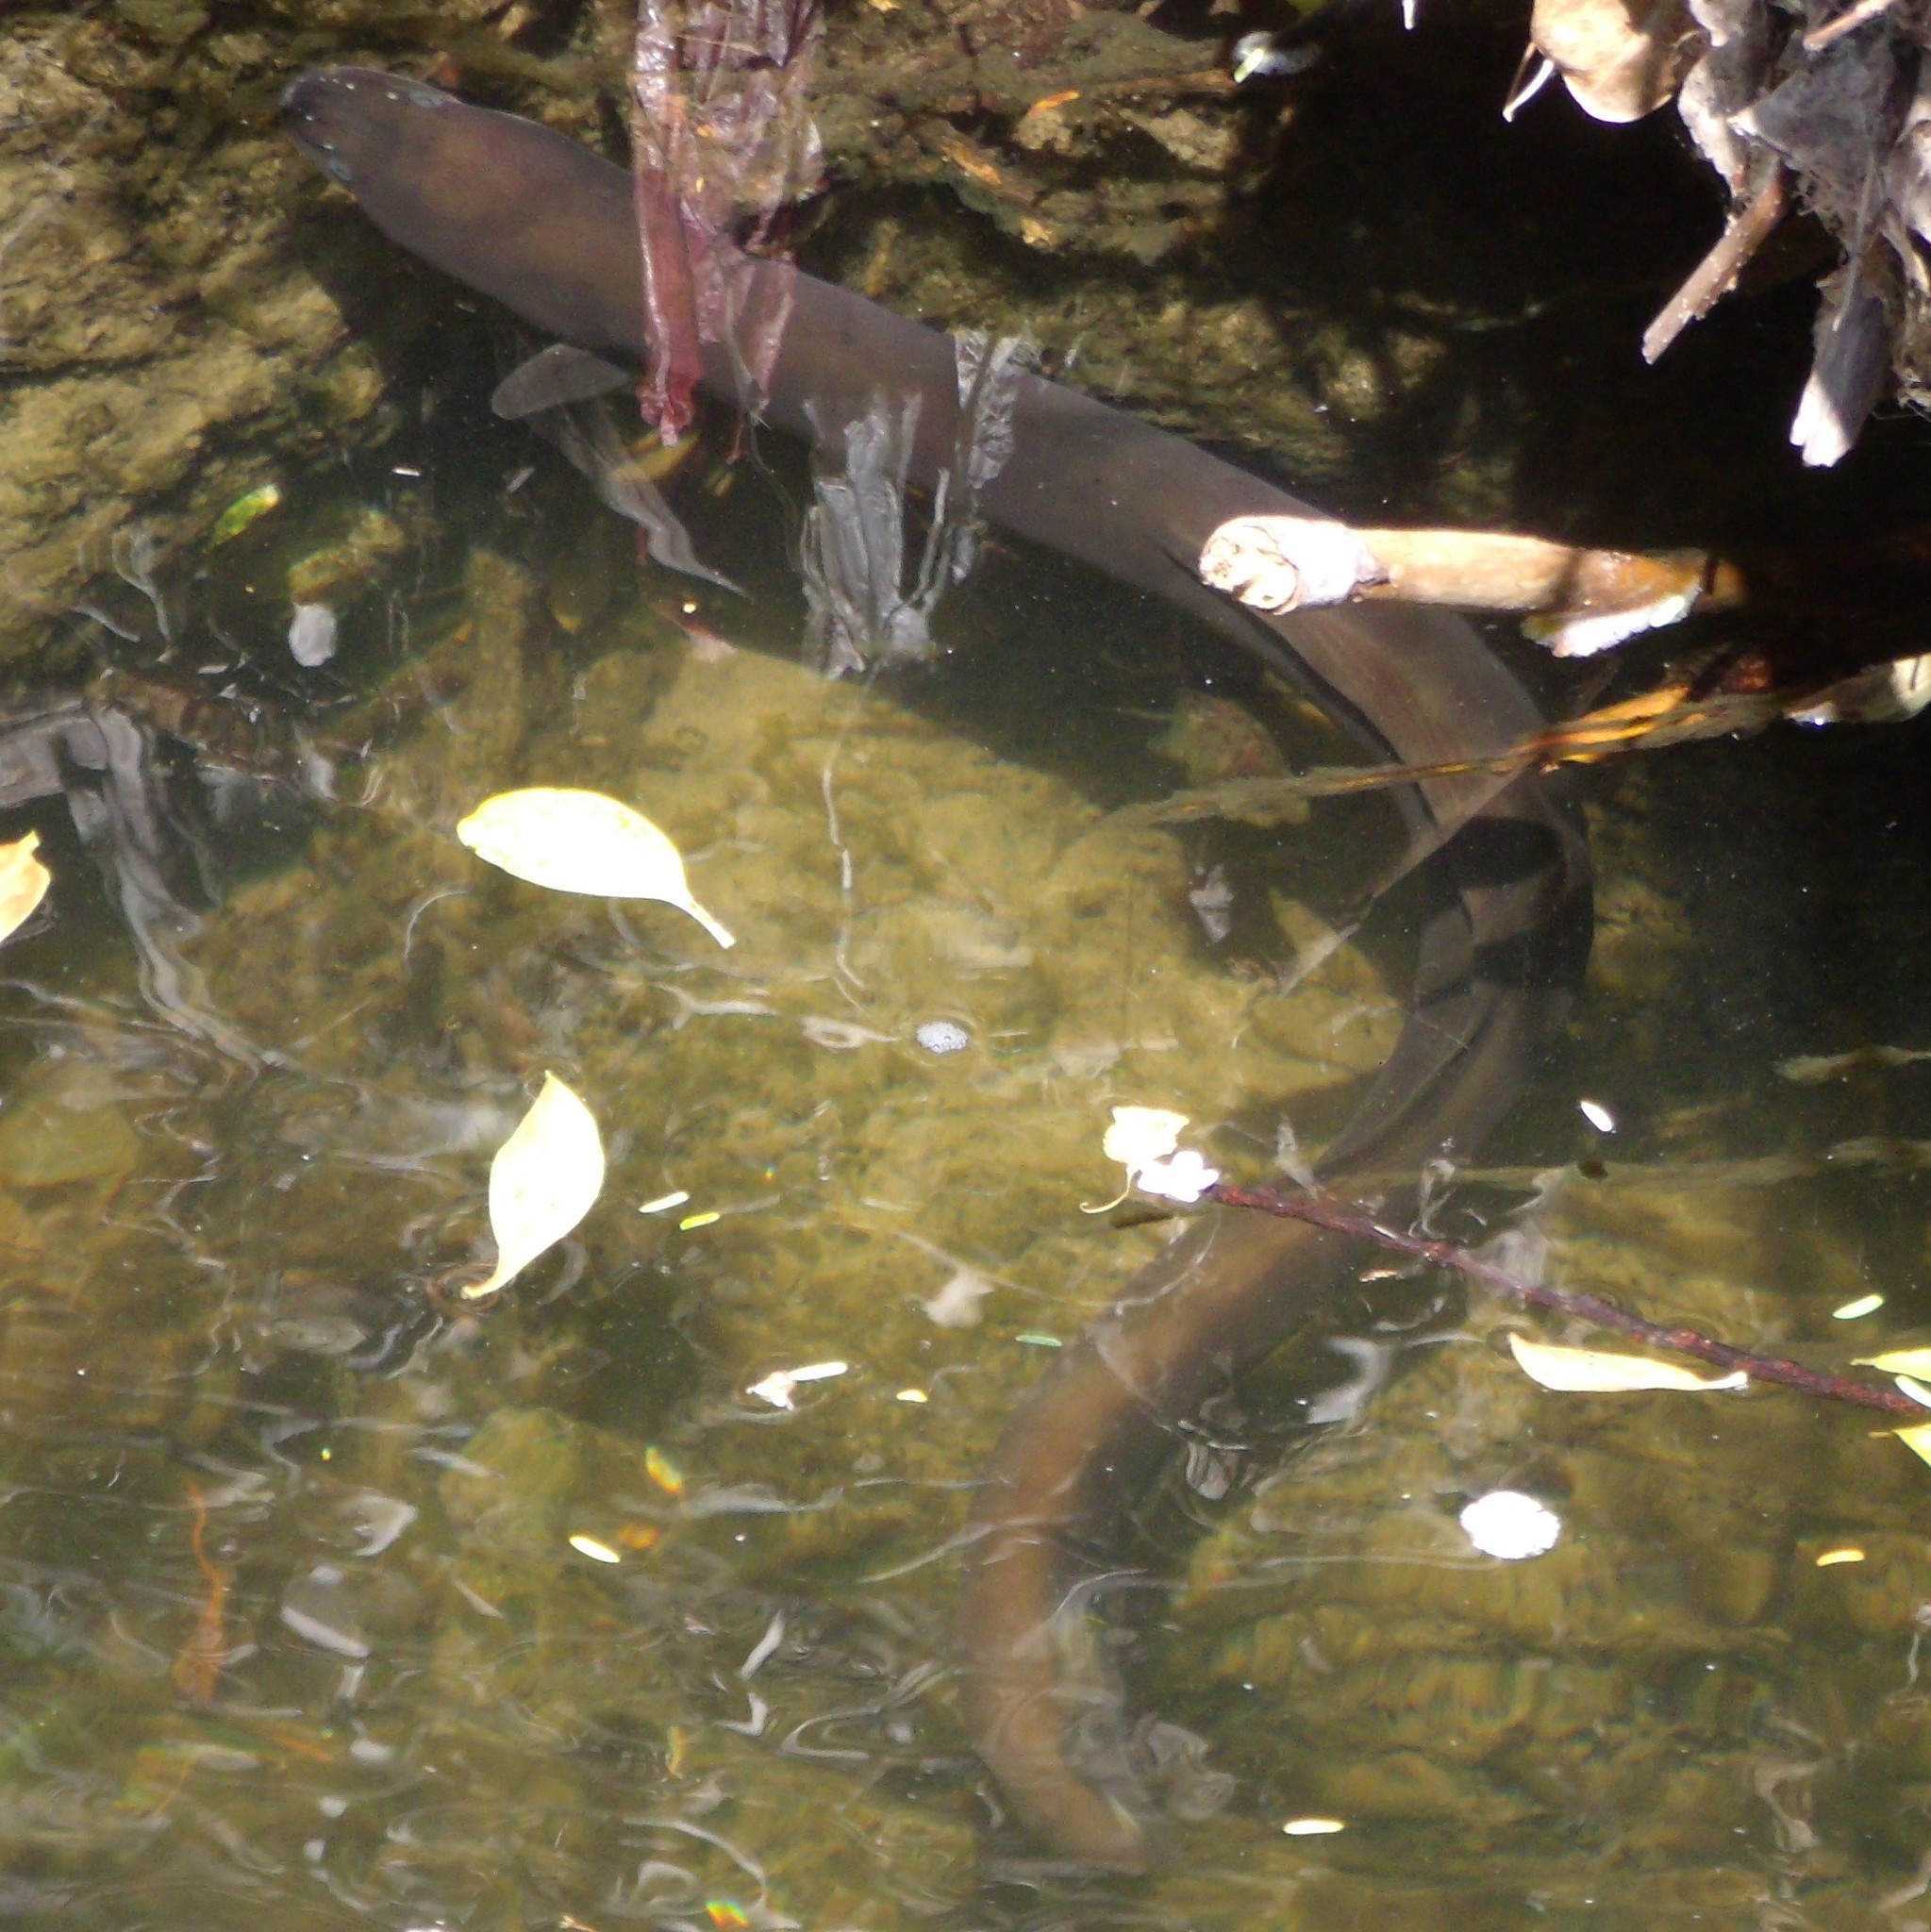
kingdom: Animalia
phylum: Chordata
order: Anguilliformes
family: Anguillidae
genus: Anguilla
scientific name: Anguilla dieffenbachii
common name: New zealand longfin eel
